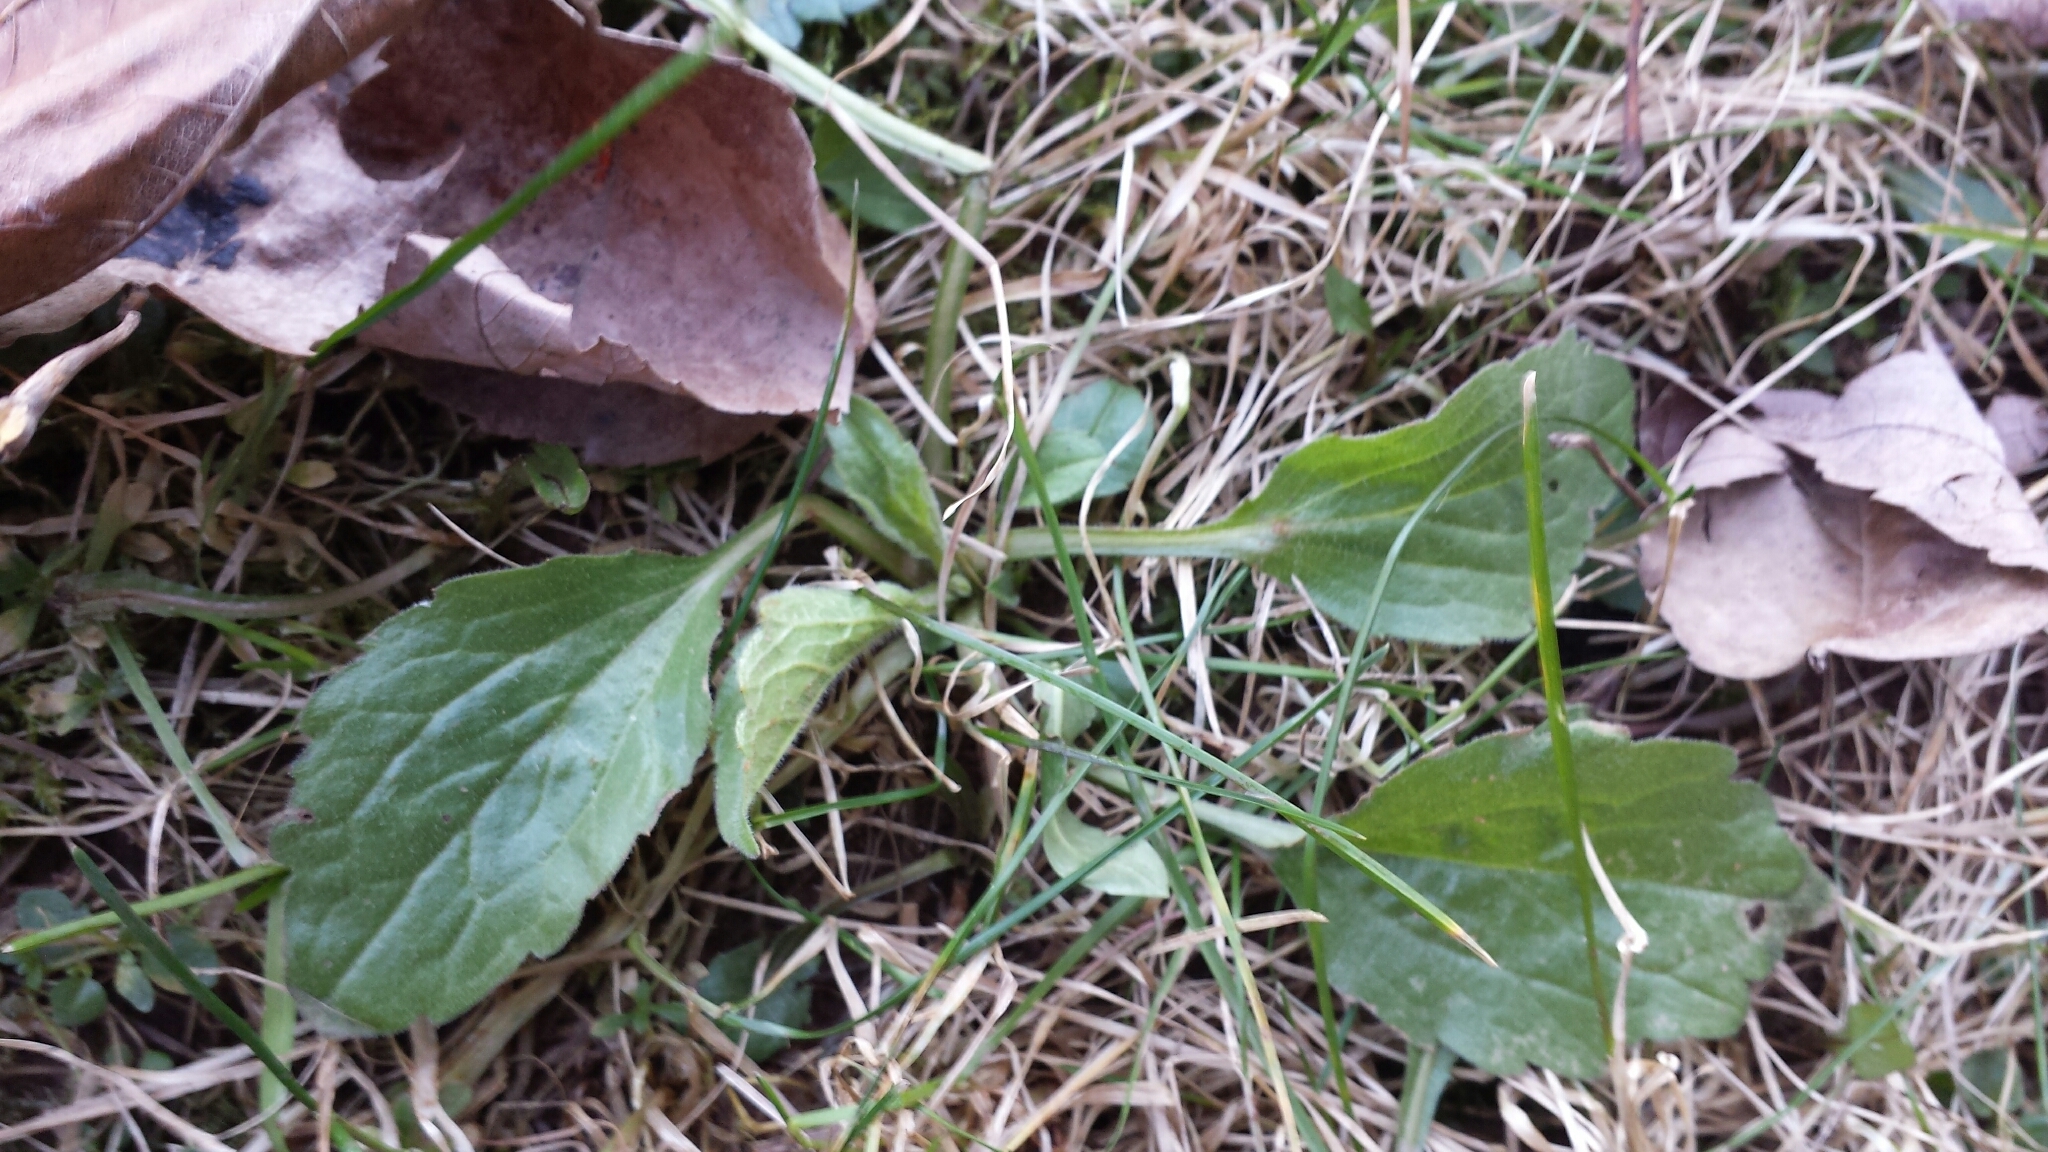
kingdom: Plantae
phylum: Tracheophyta
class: Magnoliopsida
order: Asterales
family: Asteraceae
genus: Erigeron
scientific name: Erigeron annuus
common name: Tall fleabane
